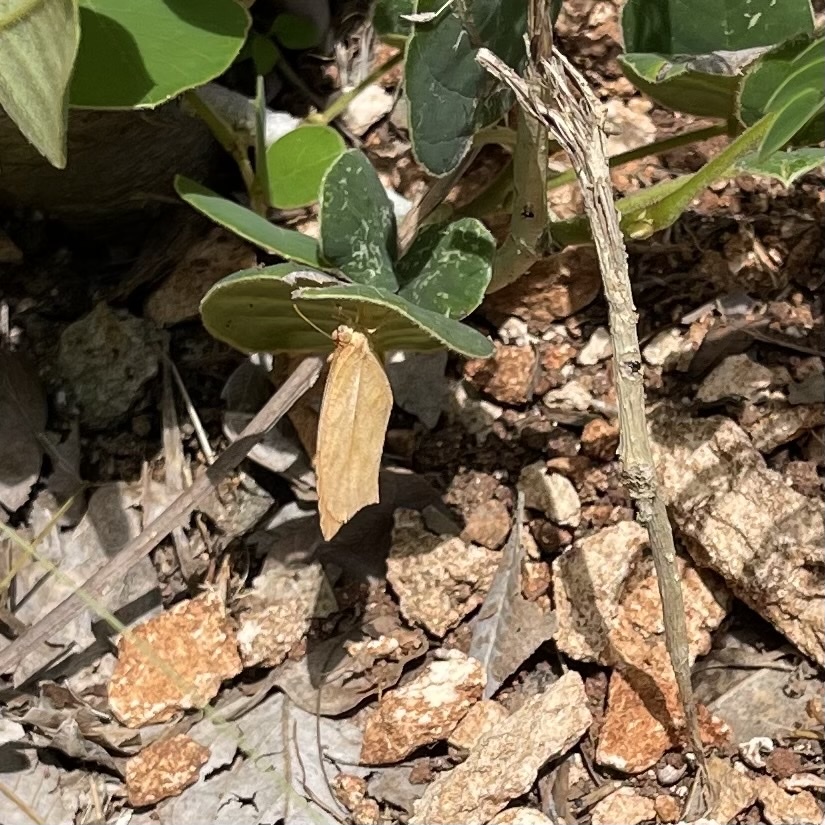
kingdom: Animalia
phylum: Arthropoda
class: Insecta
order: Lepidoptera
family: Pieridae
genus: Pyrisitia
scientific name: Pyrisitia proterpia
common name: Tailed orange
